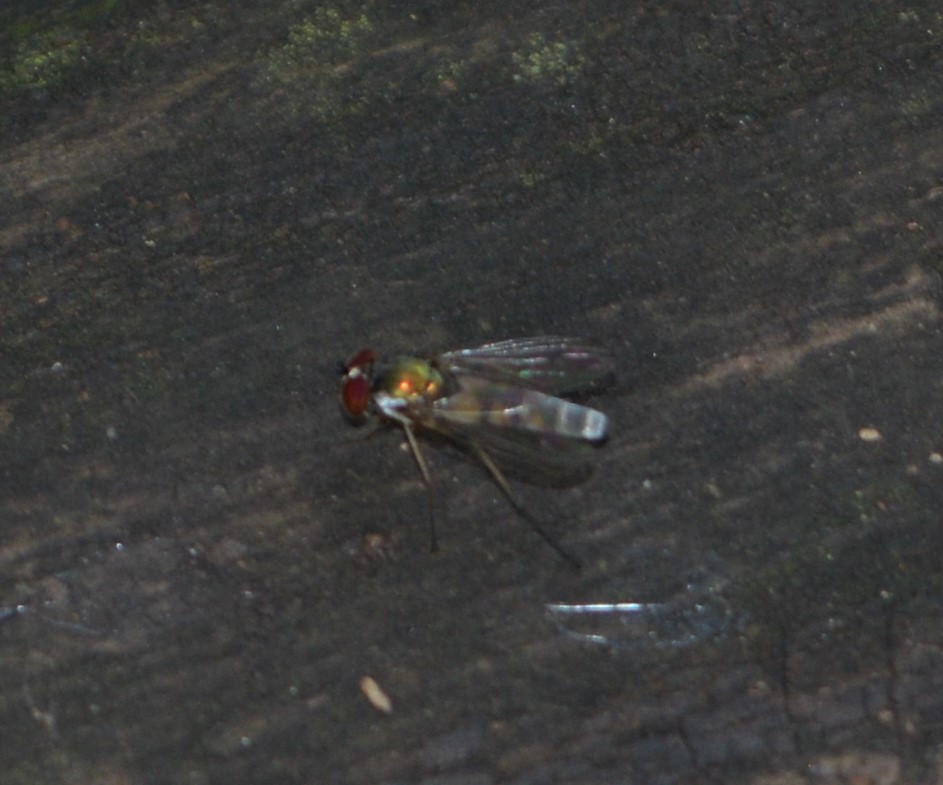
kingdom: Animalia
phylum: Arthropoda
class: Insecta
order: Diptera
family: Dolichopodidae
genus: Argyra
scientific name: Argyra
